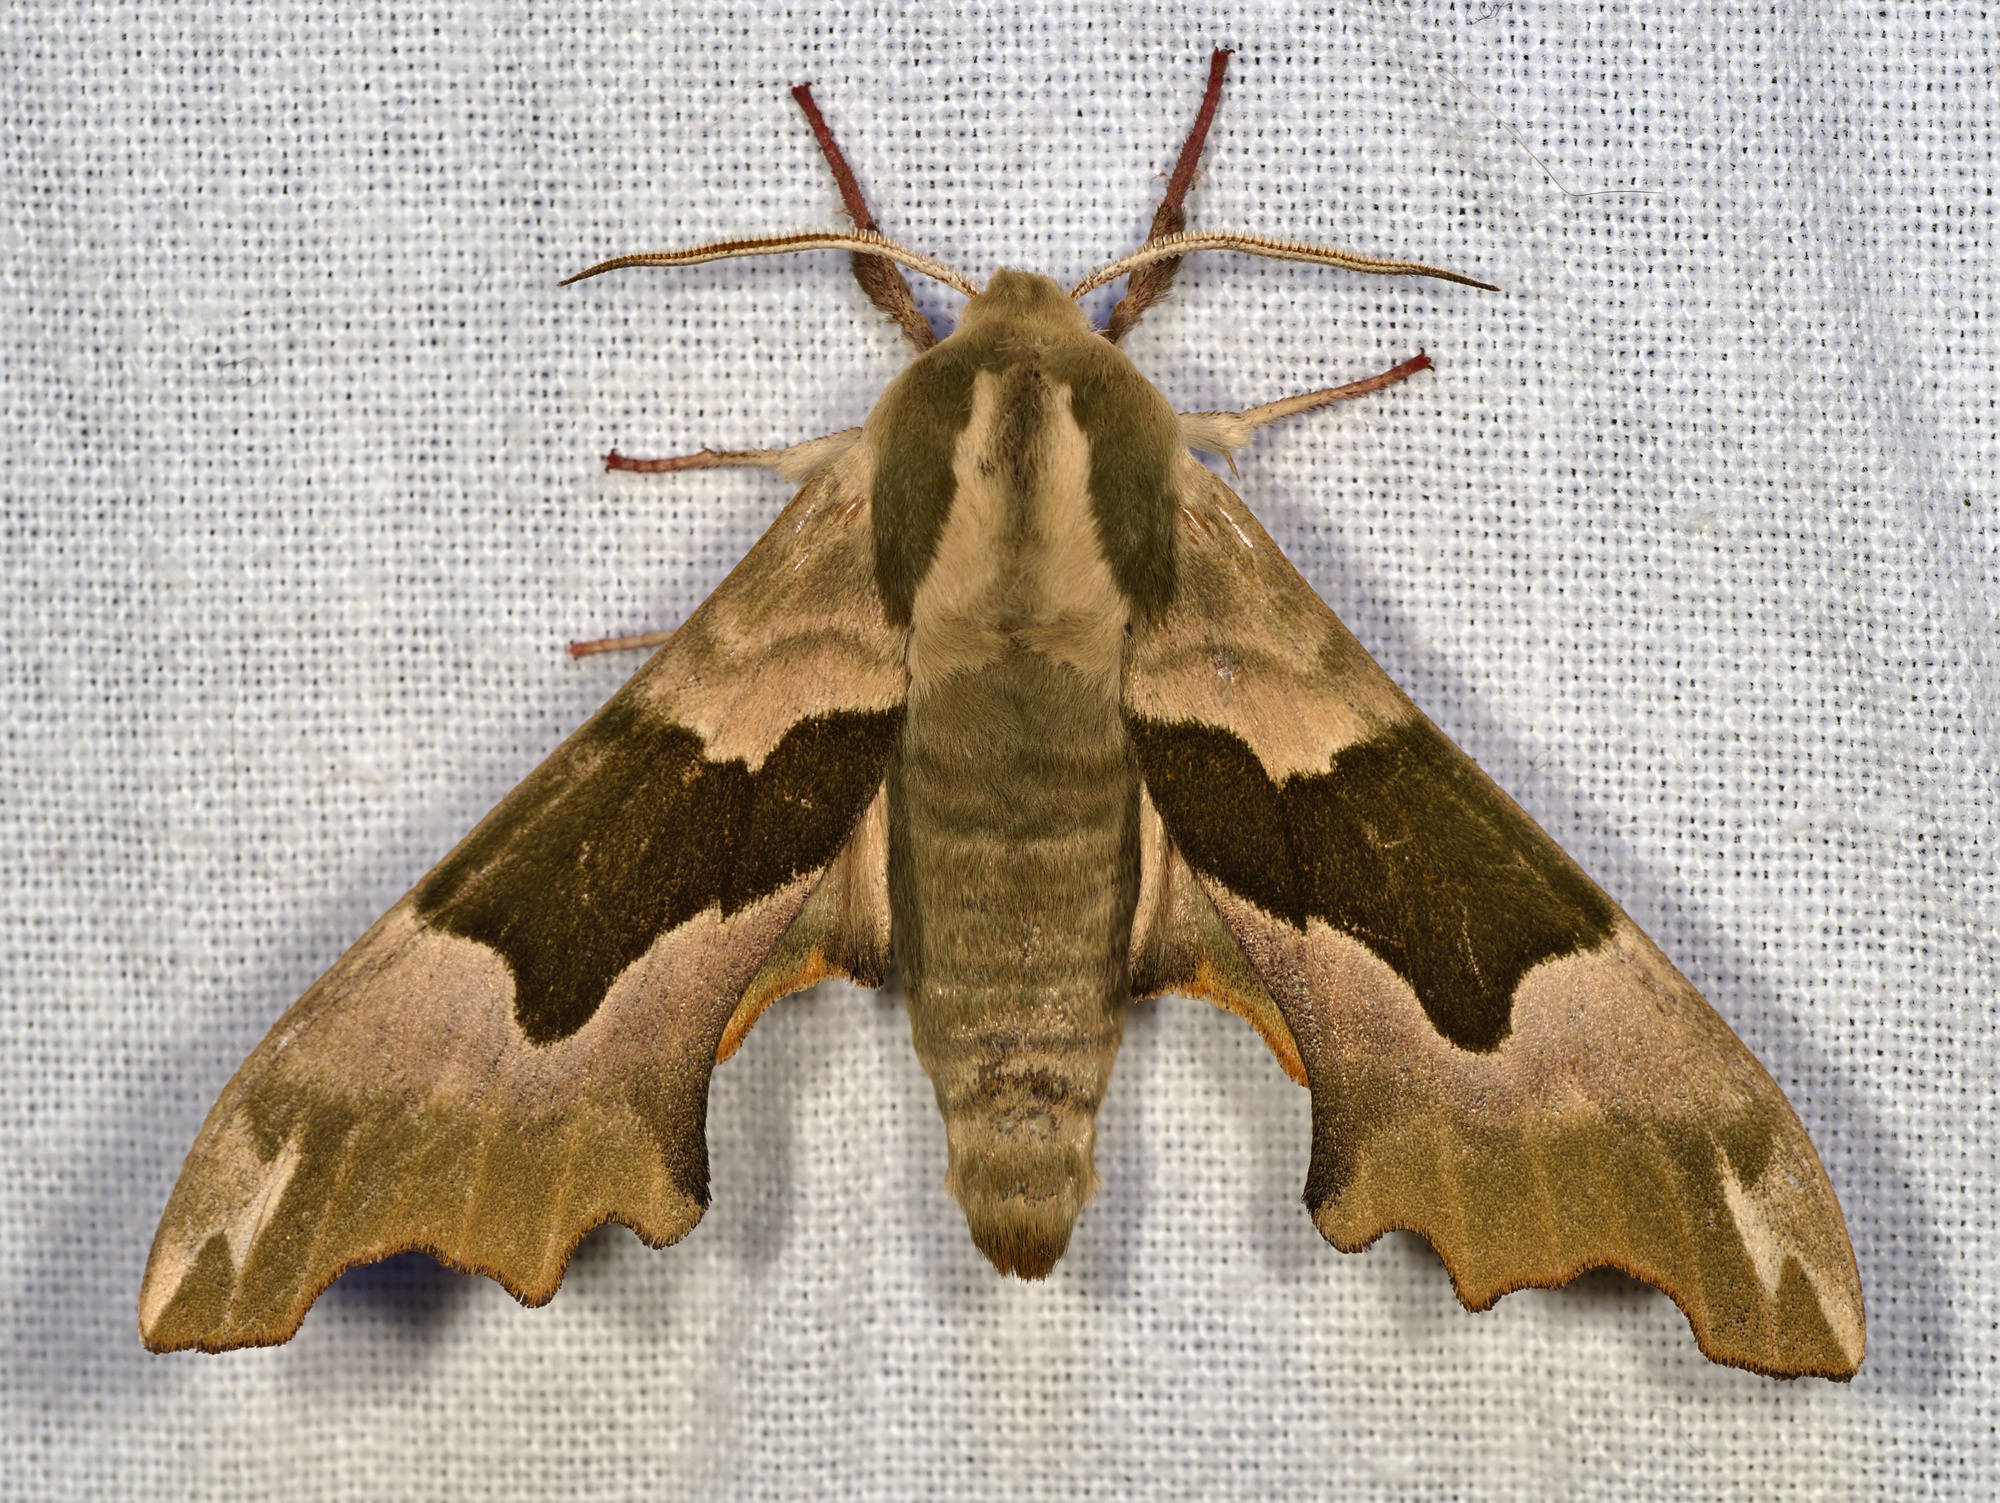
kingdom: Animalia
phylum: Arthropoda
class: Insecta
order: Lepidoptera
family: Sphingidae
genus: Mimas
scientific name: Mimas tiliae
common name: Lime hawk-moth
